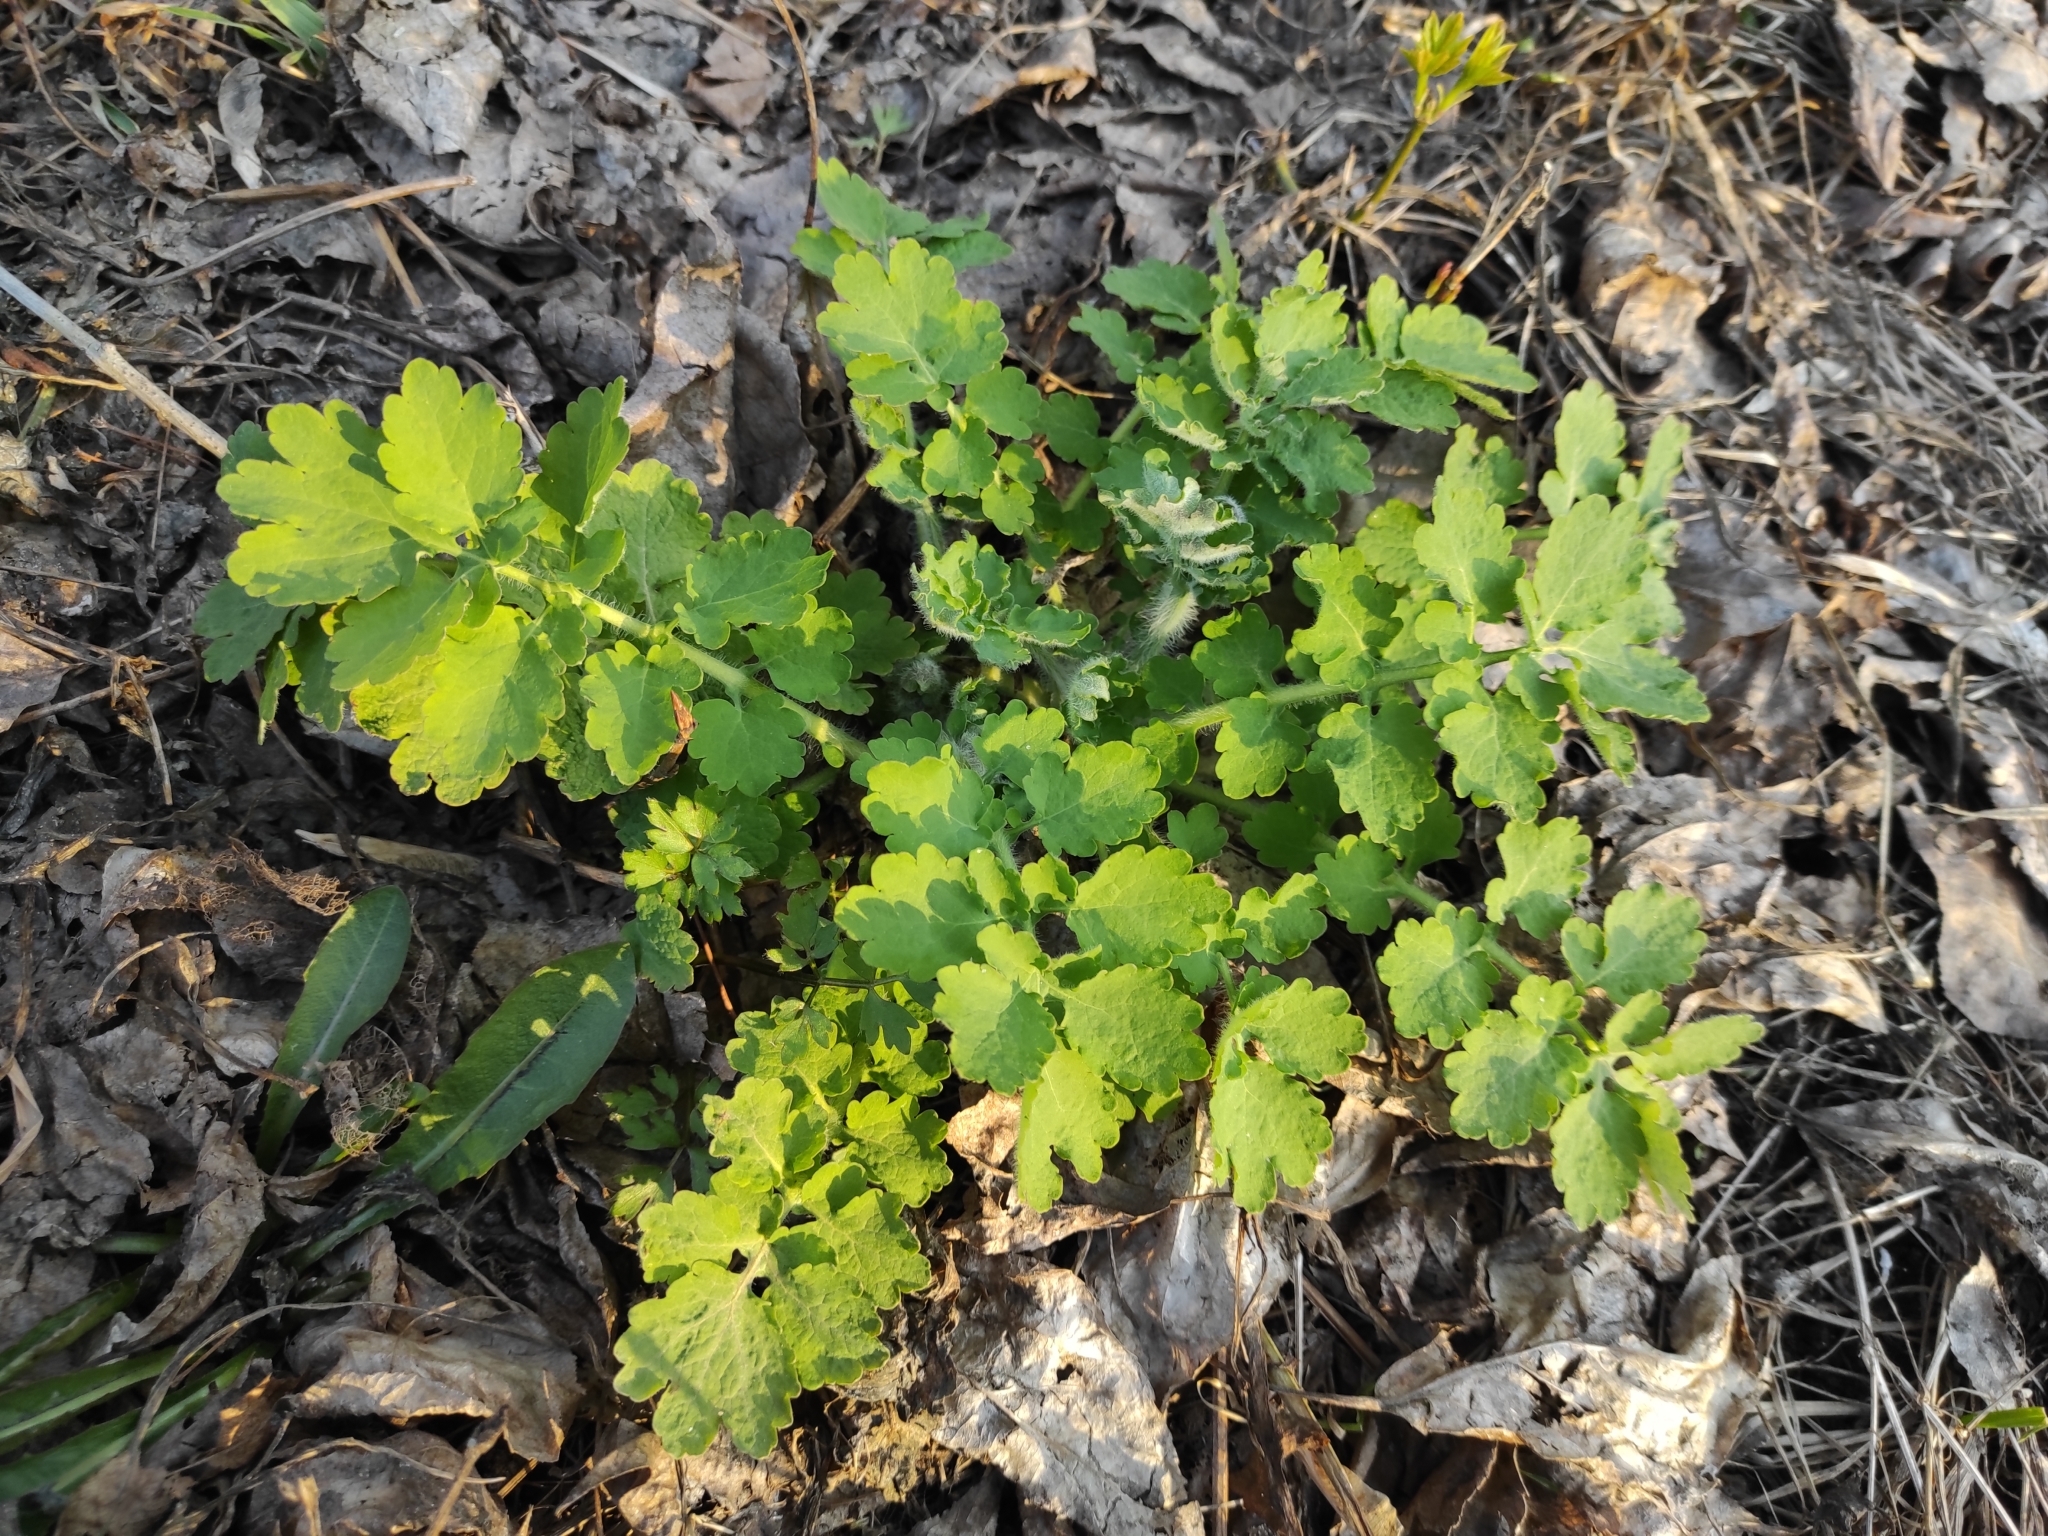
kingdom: Plantae
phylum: Tracheophyta
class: Magnoliopsida
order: Ranunculales
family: Papaveraceae
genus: Chelidonium
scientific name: Chelidonium majus
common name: Greater celandine
